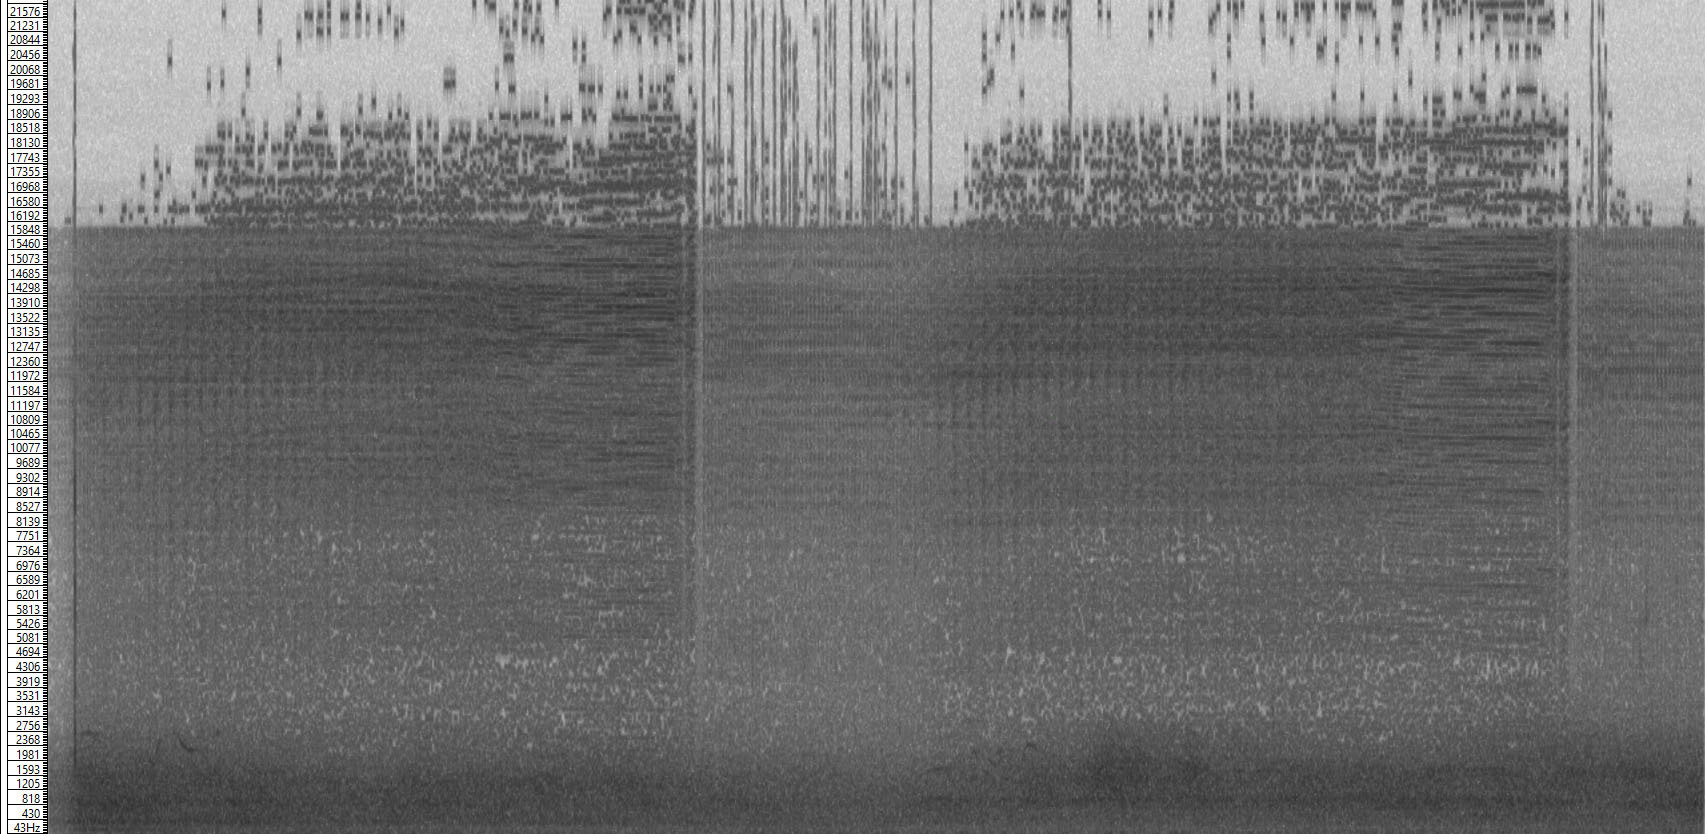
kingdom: Animalia
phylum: Arthropoda
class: Insecta
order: Hemiptera
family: Cicadidae
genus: Dimissalna
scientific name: Dimissalna dimissa
